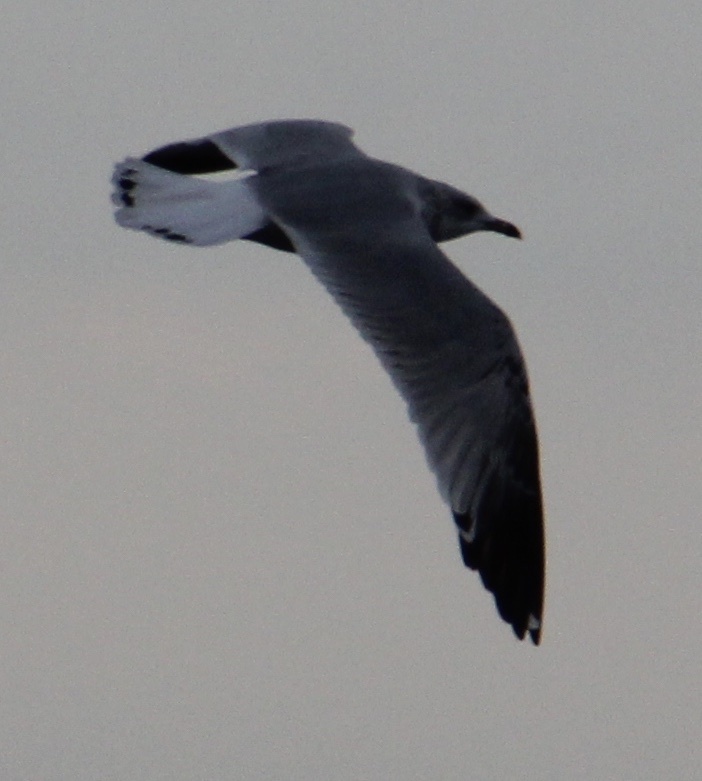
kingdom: Animalia
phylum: Chordata
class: Aves
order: Charadriiformes
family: Laridae
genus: Larus
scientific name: Larus delawarensis
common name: Ring-billed gull
